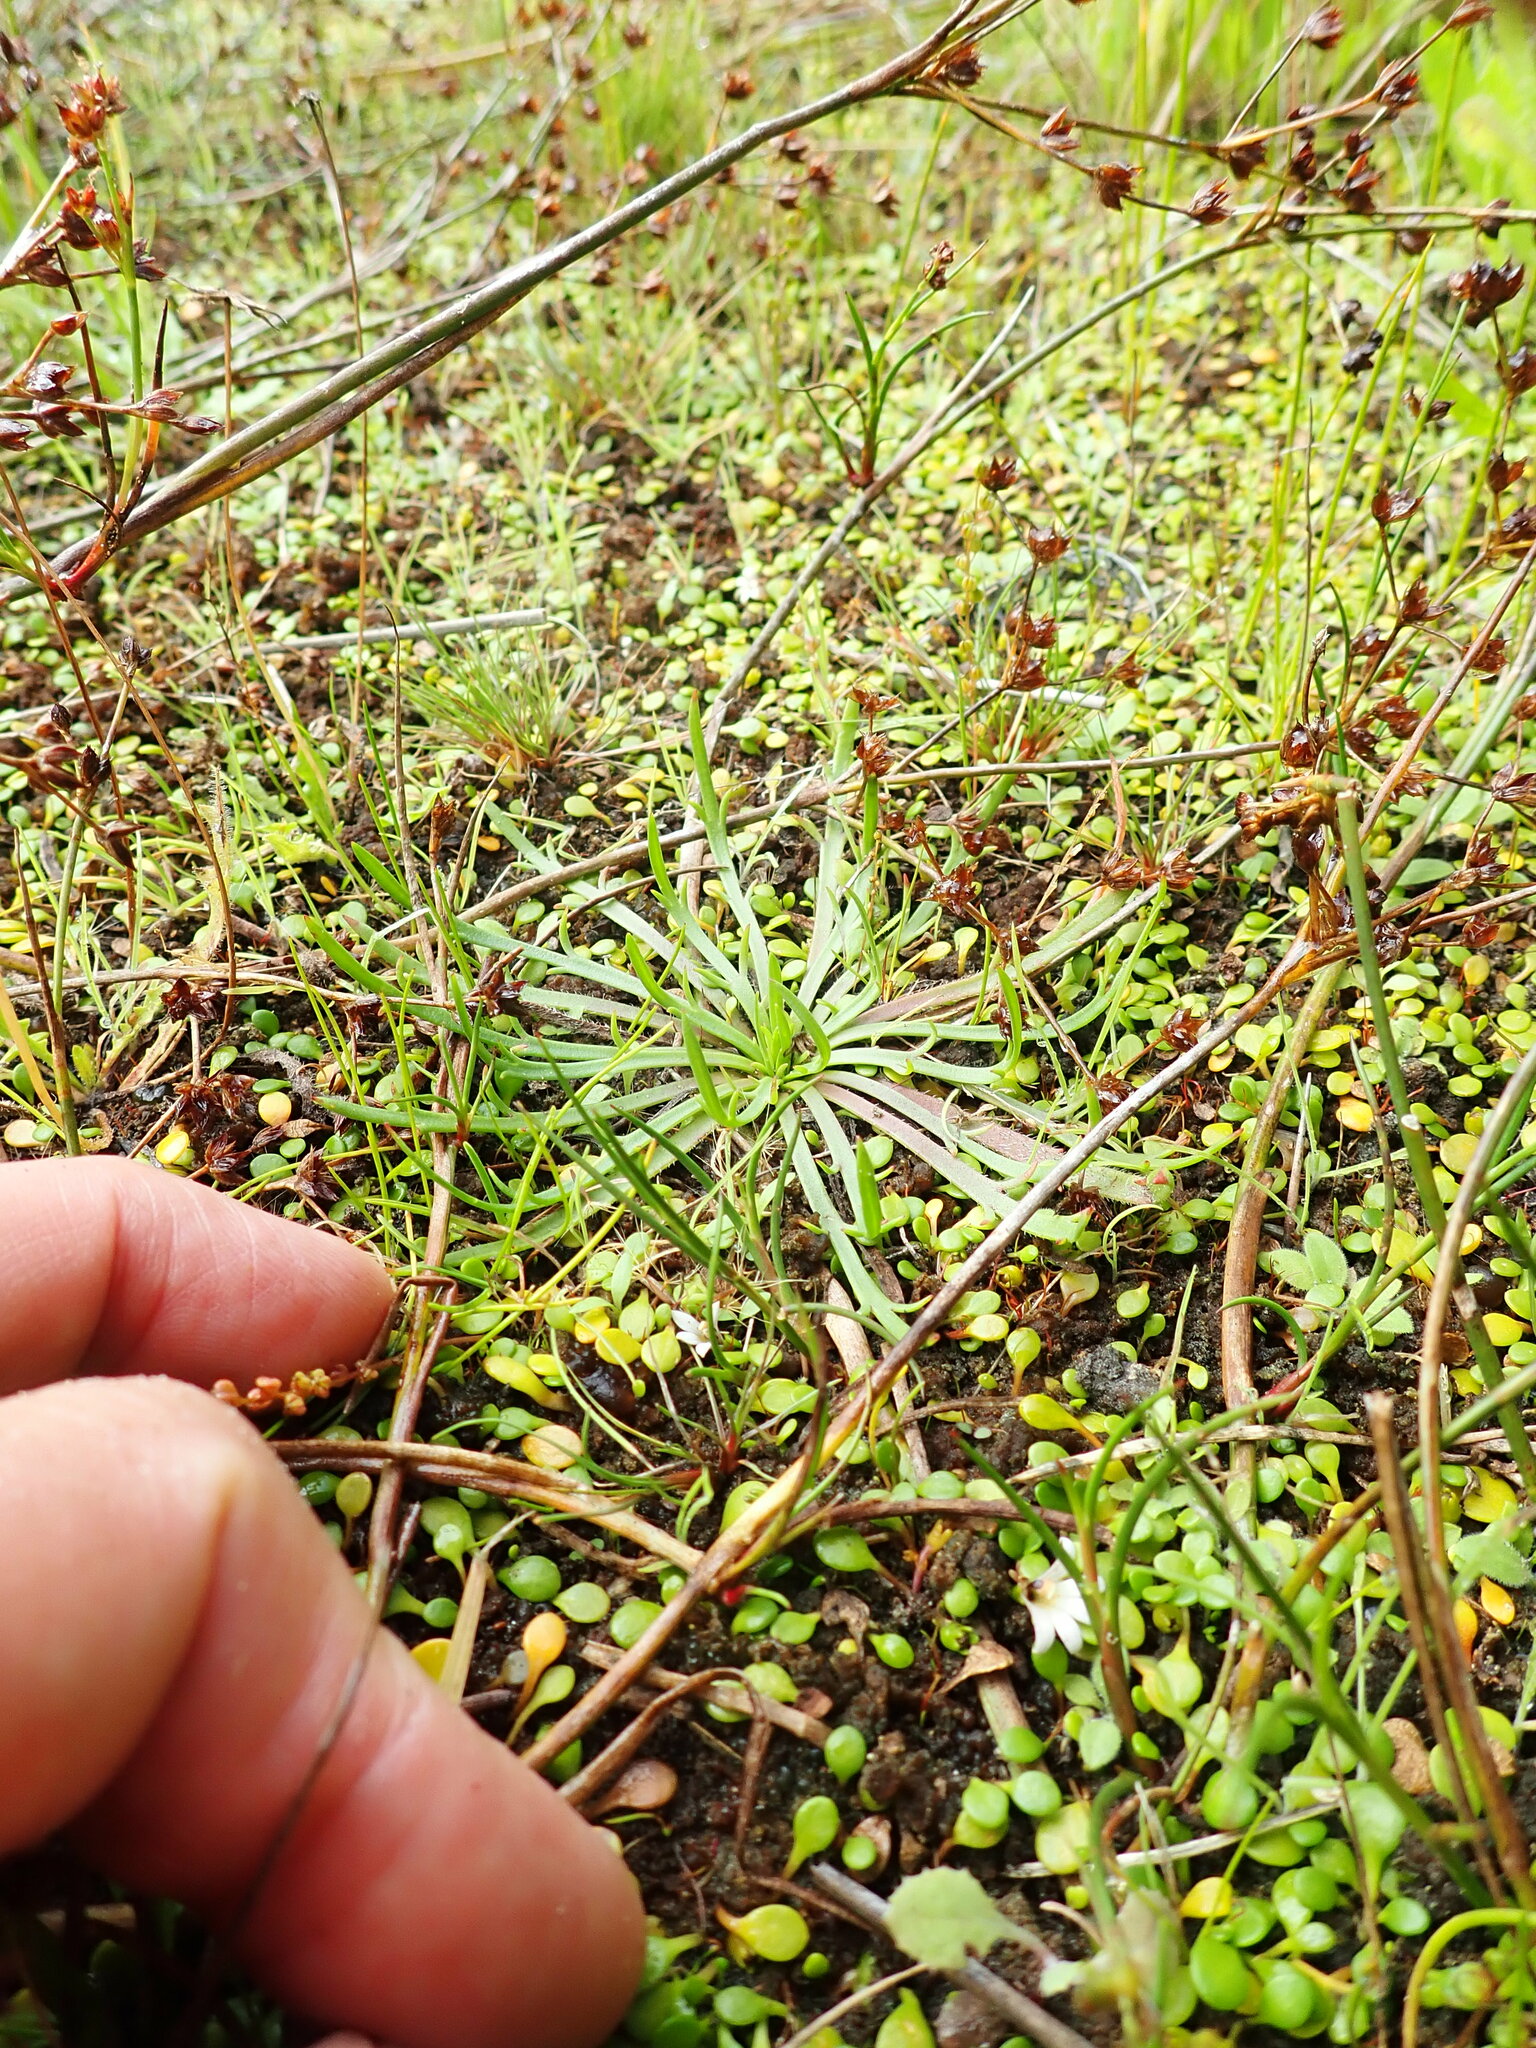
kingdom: Plantae
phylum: Tracheophyta
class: Magnoliopsida
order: Lamiales
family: Plantaginaceae
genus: Plantago
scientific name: Plantago coronopus
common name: Buck's-horn plantain
